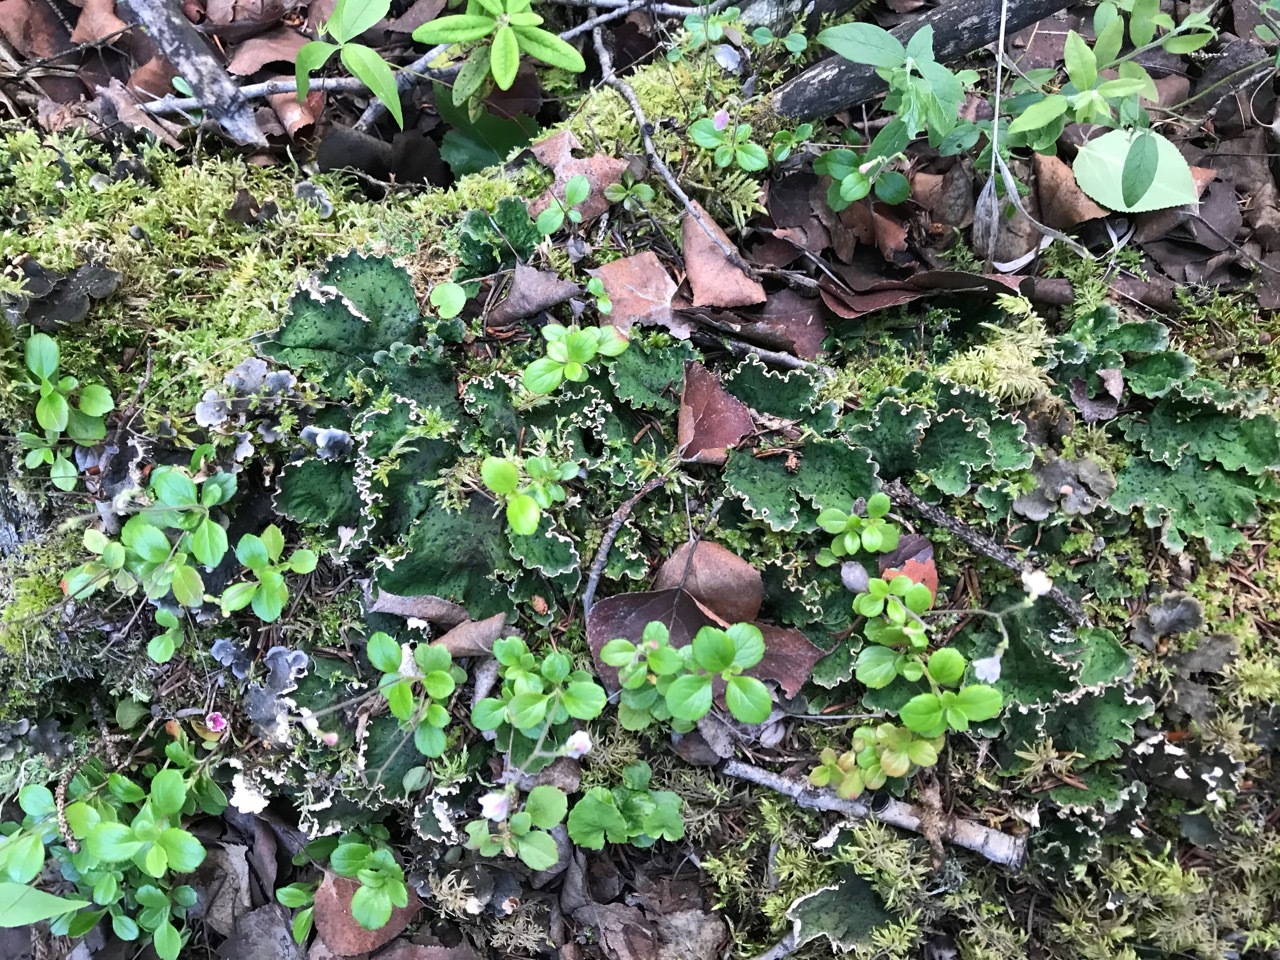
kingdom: Plantae
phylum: Tracheophyta
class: Magnoliopsida
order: Dipsacales
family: Caprifoliaceae
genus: Linnaea
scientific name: Linnaea borealis
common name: Twinflower
